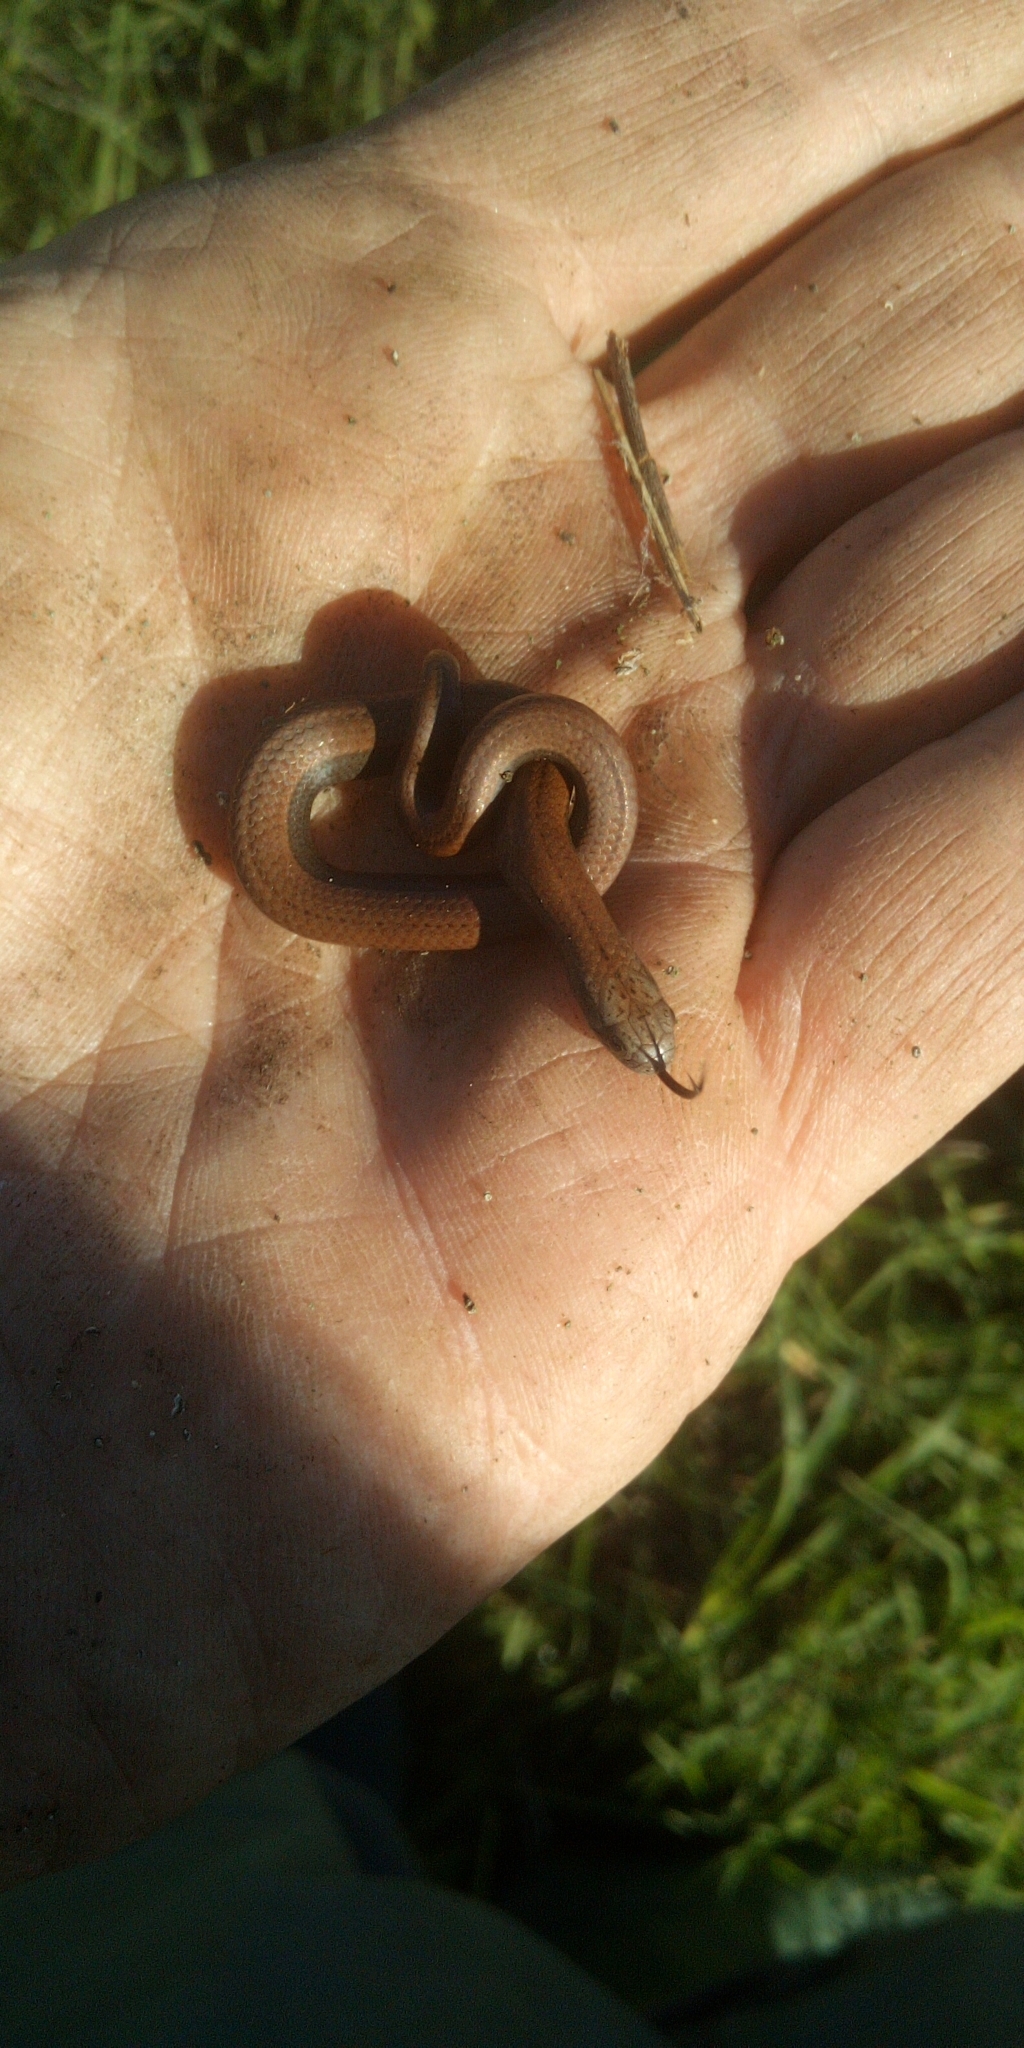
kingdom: Animalia
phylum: Chordata
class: Squamata
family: Pseudoxyrhophiidae
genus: Duberria
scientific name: Duberria lutrix
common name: Common slug eater
